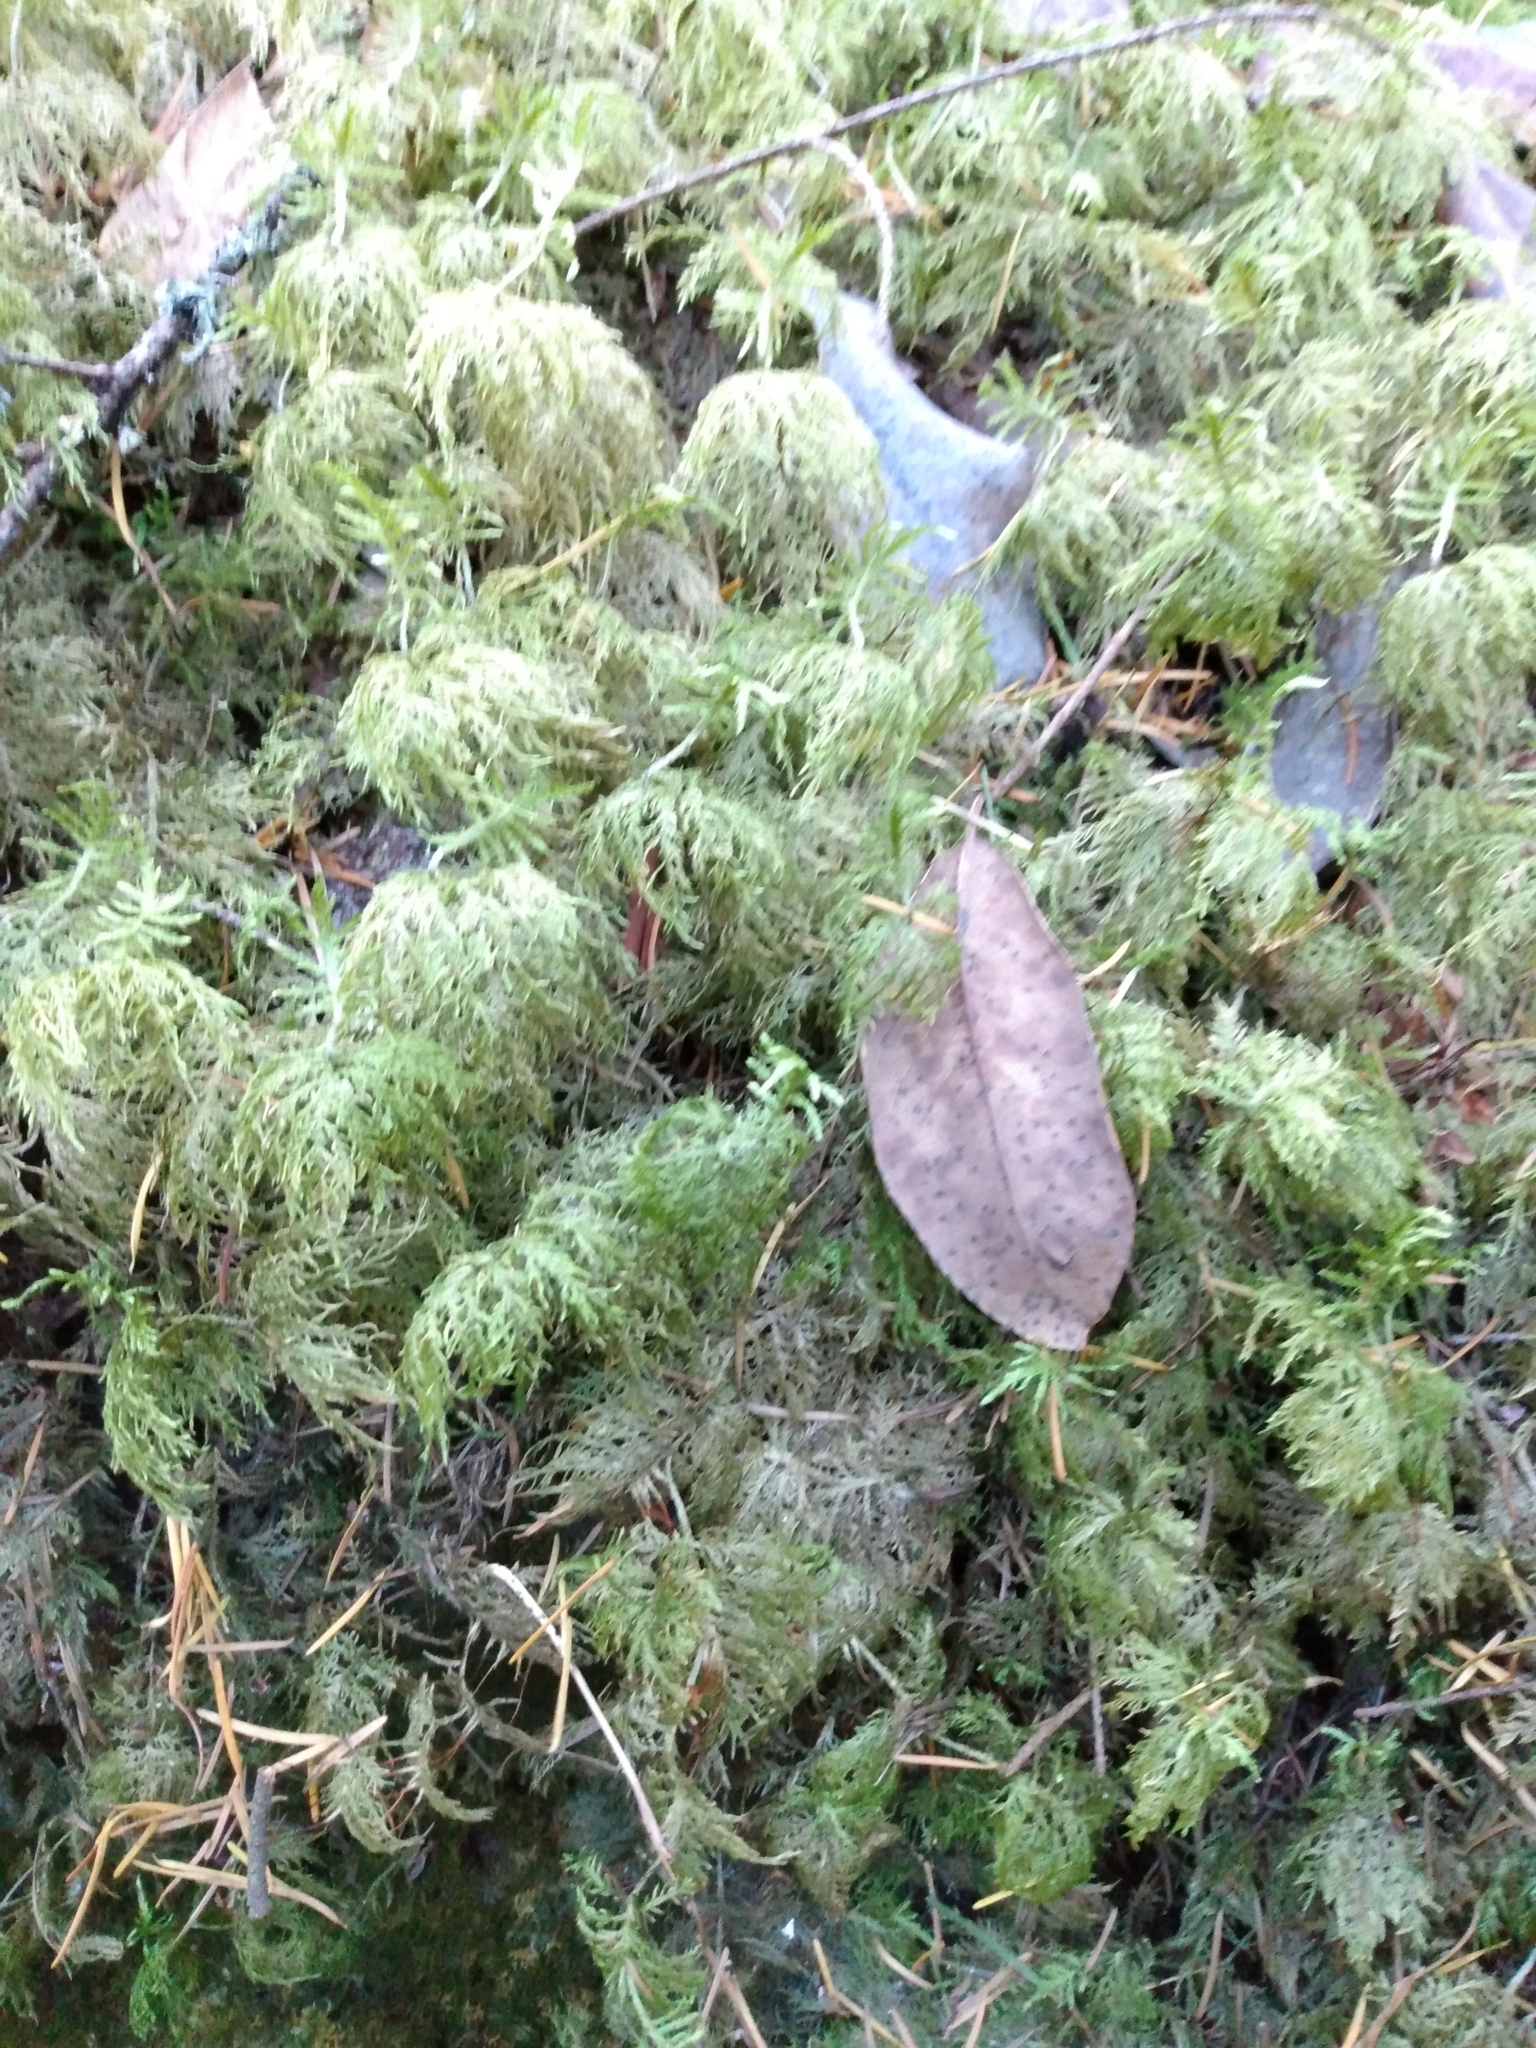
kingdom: Plantae
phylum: Bryophyta
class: Bryopsida
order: Hypnales
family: Hylocomiaceae
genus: Hylocomium
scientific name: Hylocomium splendens
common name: Stairstep moss
